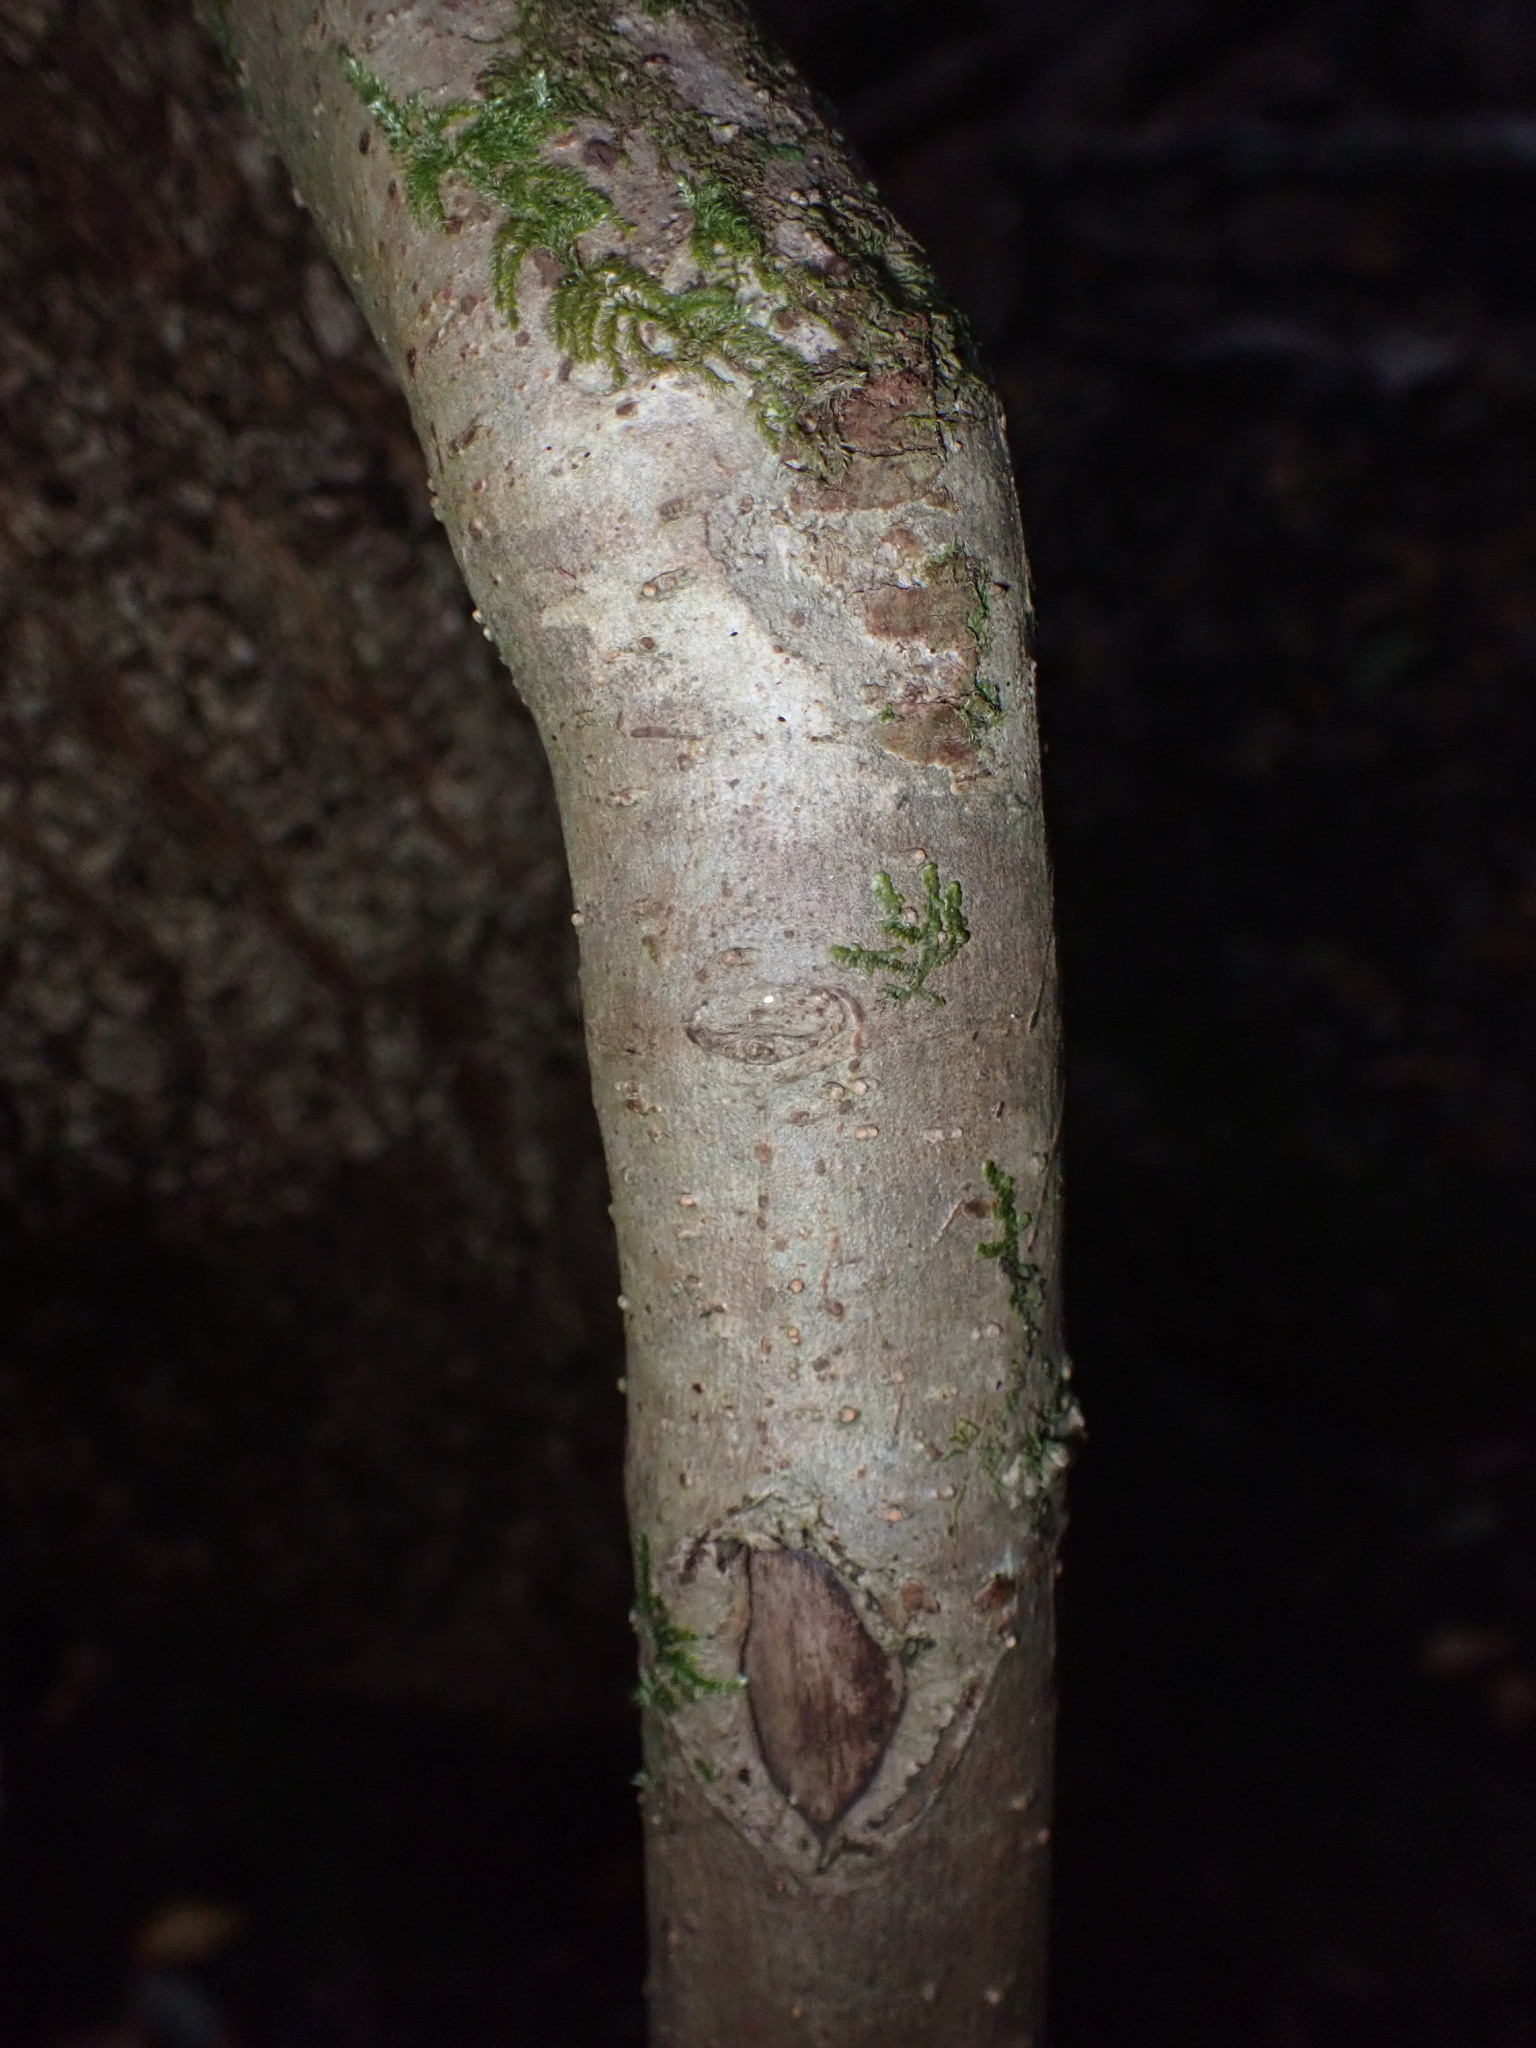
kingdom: Plantae
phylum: Tracheophyta
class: Magnoliopsida
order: Dipsacales
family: Viburnaceae
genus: Viburnum
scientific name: Viburnum rugosum
